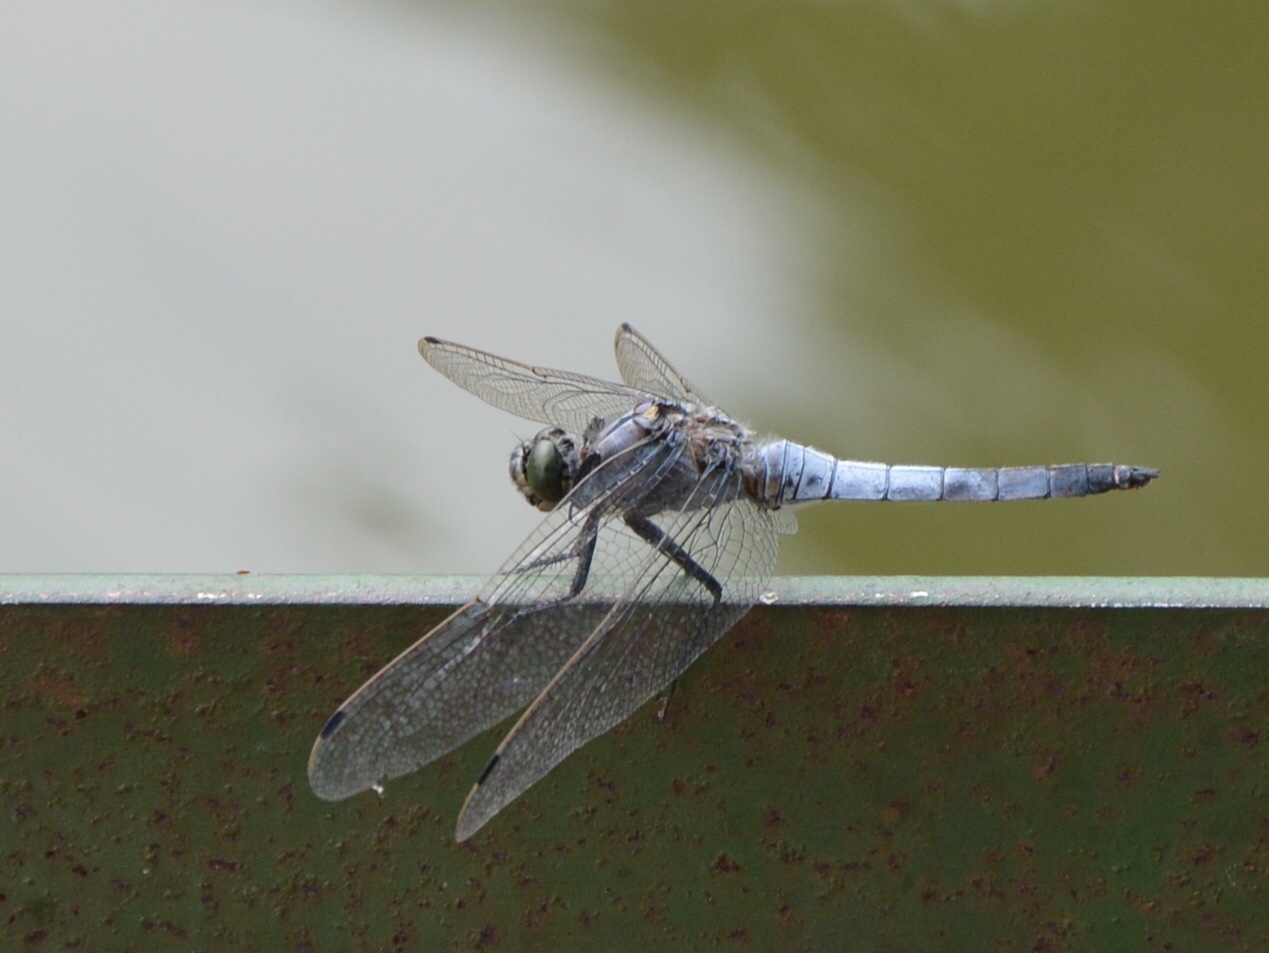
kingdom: Animalia
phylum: Arthropoda
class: Insecta
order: Odonata
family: Libellulidae
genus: Orthetrum
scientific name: Orthetrum cancellatum
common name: Black-tailed skimmer
